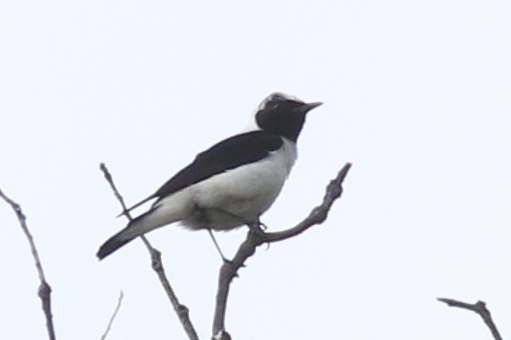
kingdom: Animalia
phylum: Chordata
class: Aves
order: Passeriformes
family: Muscicapidae
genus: Oenanthe
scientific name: Oenanthe hispanica
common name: Black-eared wheatear
